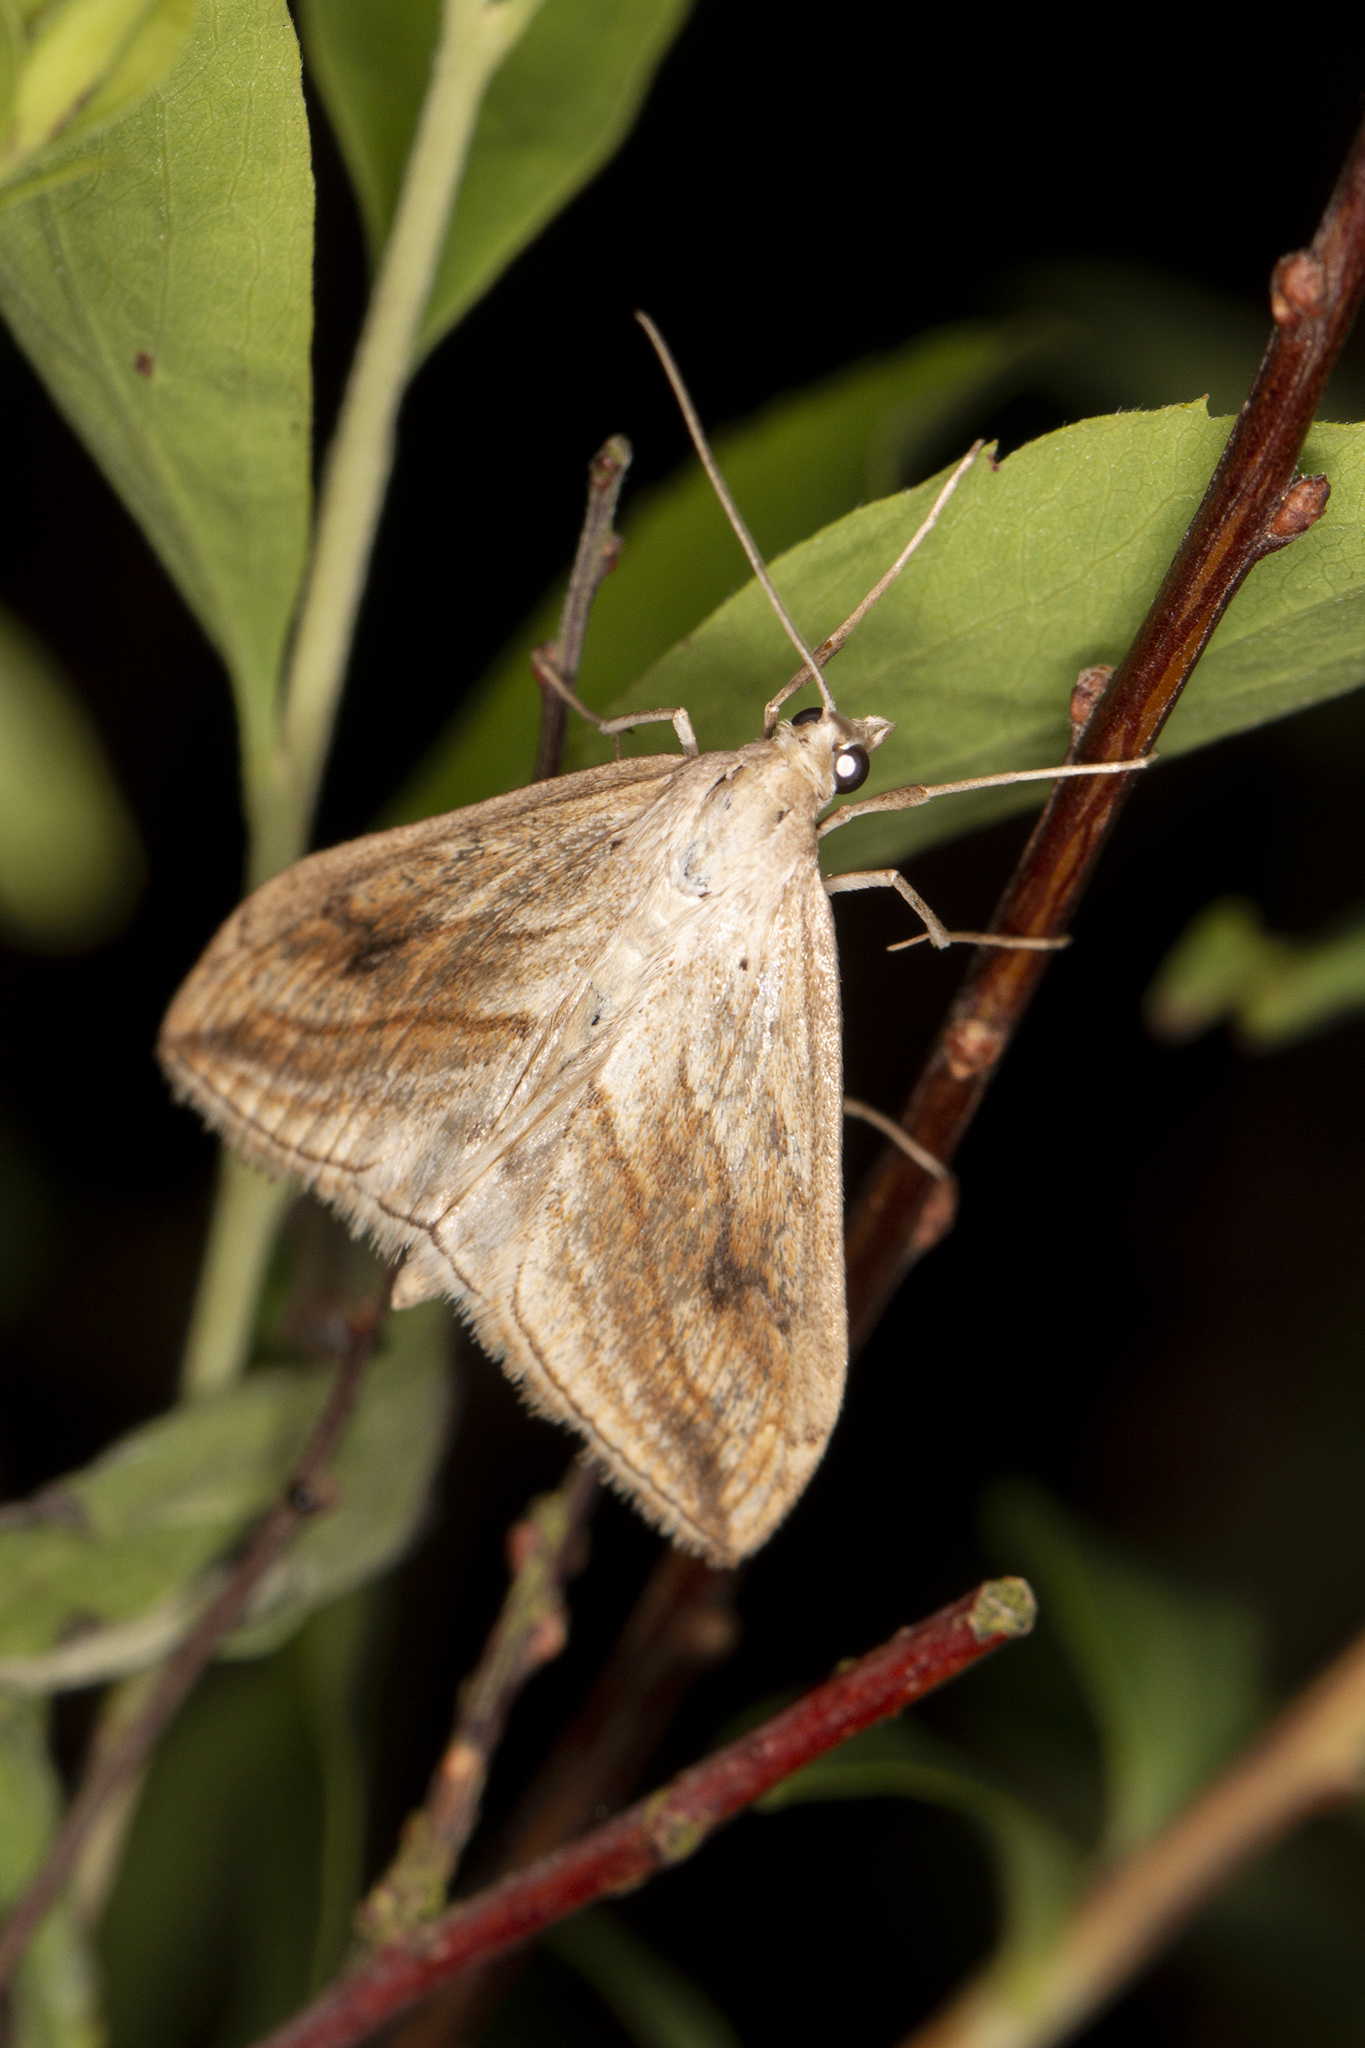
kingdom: Animalia
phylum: Arthropoda
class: Insecta
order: Lepidoptera
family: Crambidae
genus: Evergestis
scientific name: Evergestis forficalis
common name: Garden pebble
